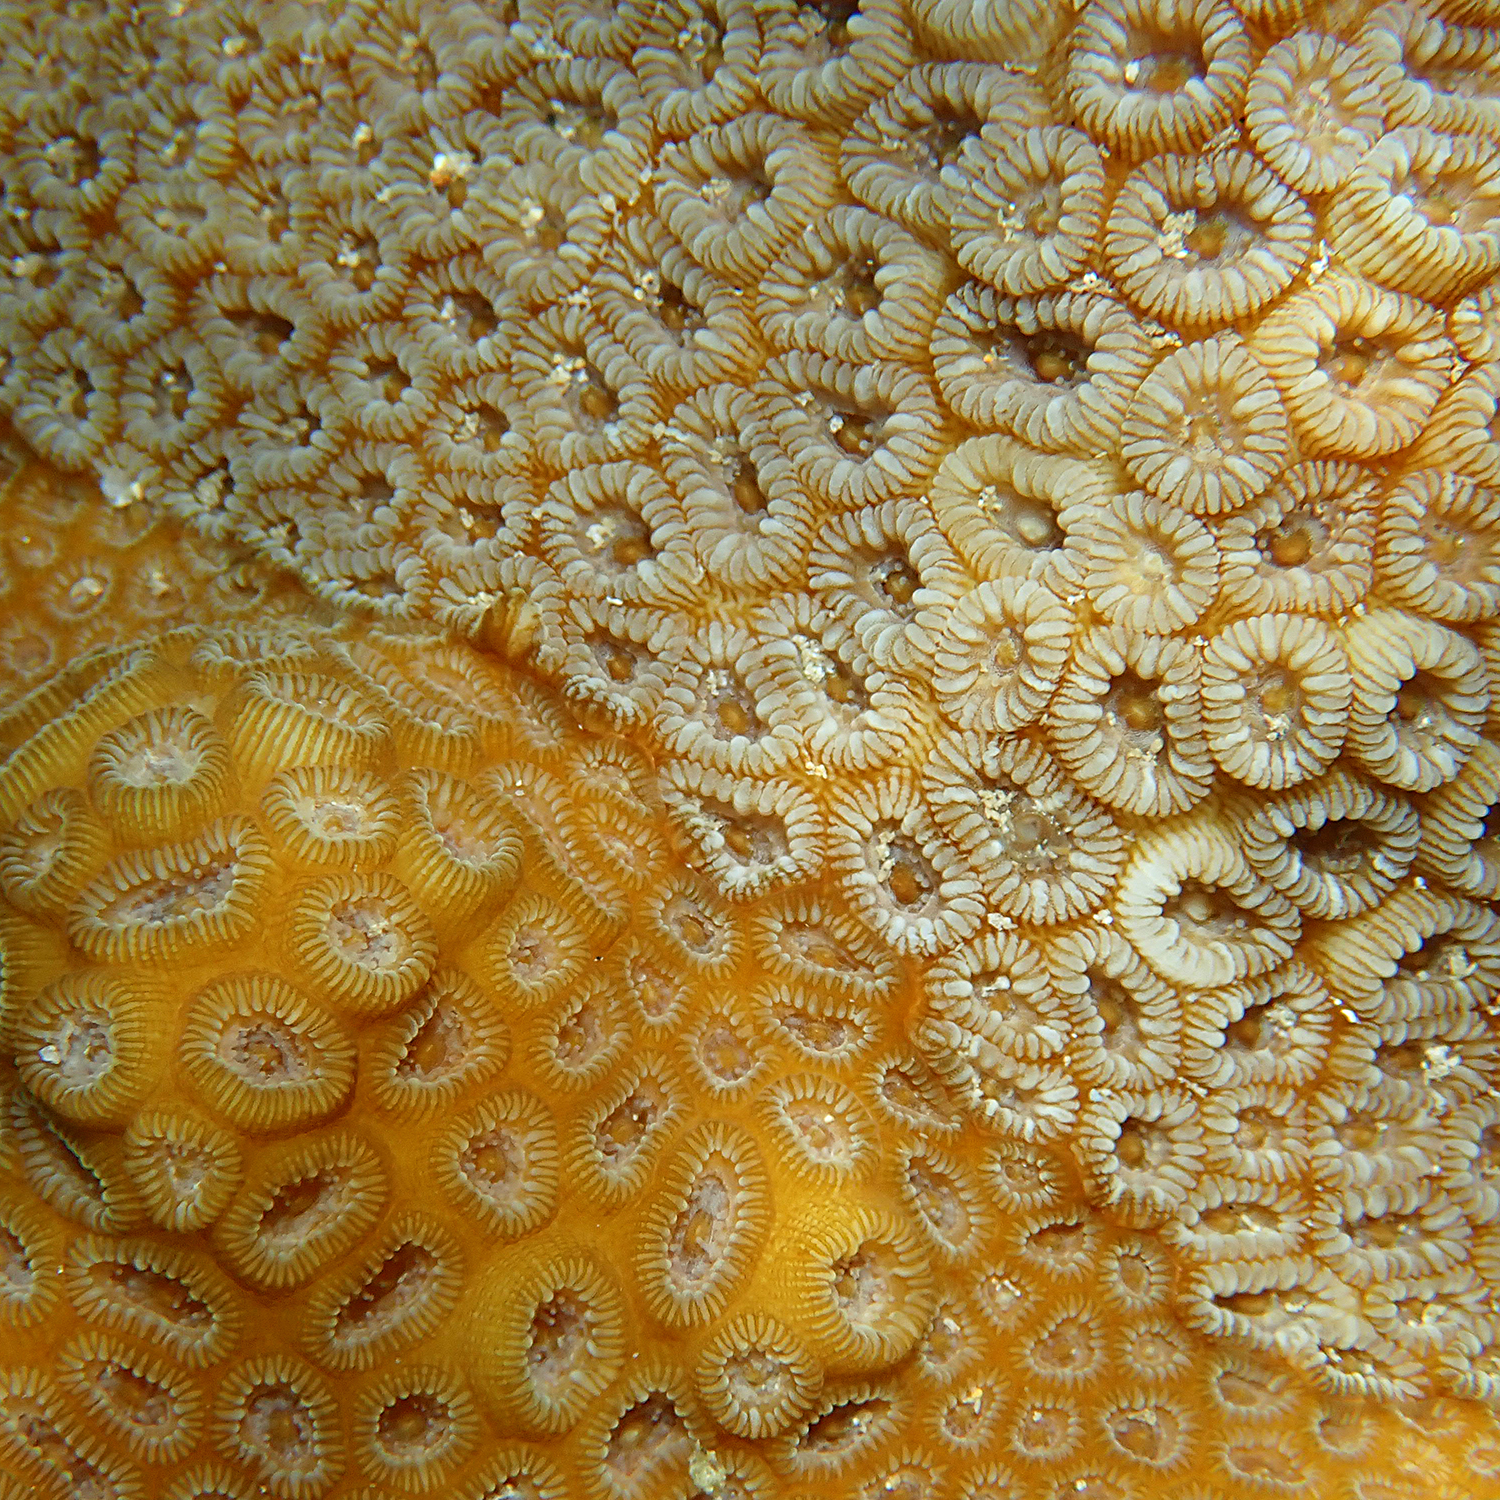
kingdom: Animalia
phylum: Cnidaria
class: Anthozoa
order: Scleractinia
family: Merulinidae
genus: Astrea
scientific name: Astrea curta
